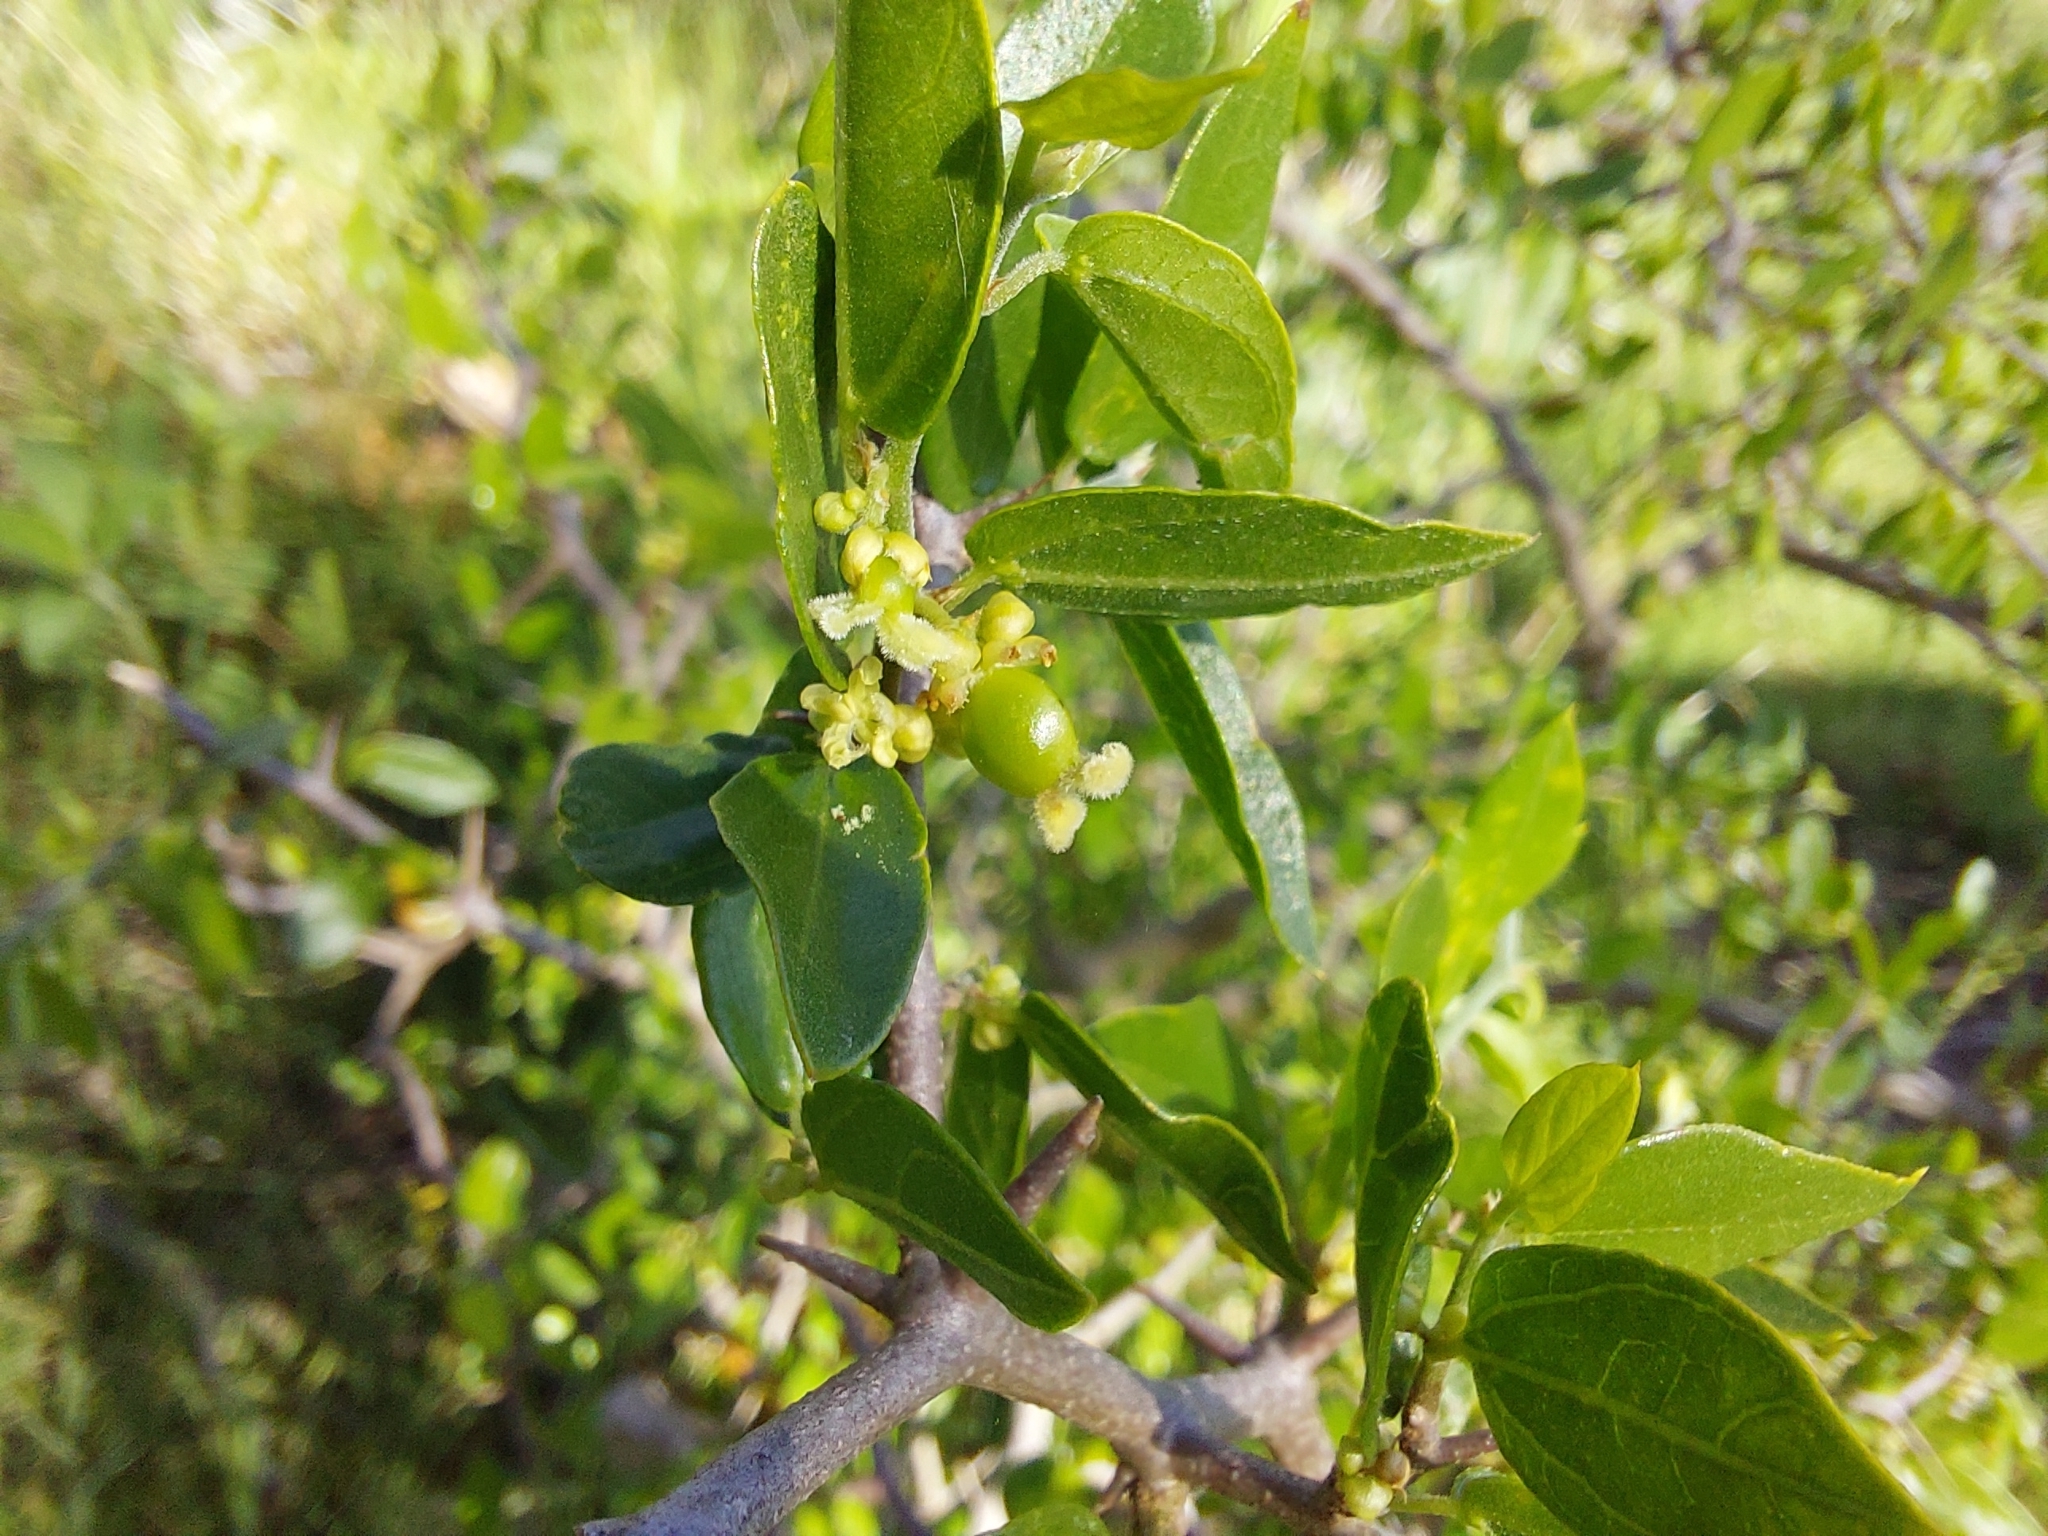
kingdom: Plantae
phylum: Tracheophyta
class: Magnoliopsida
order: Rosales
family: Cannabaceae
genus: Celtis
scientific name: Celtis pallida
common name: Desert hackberry
